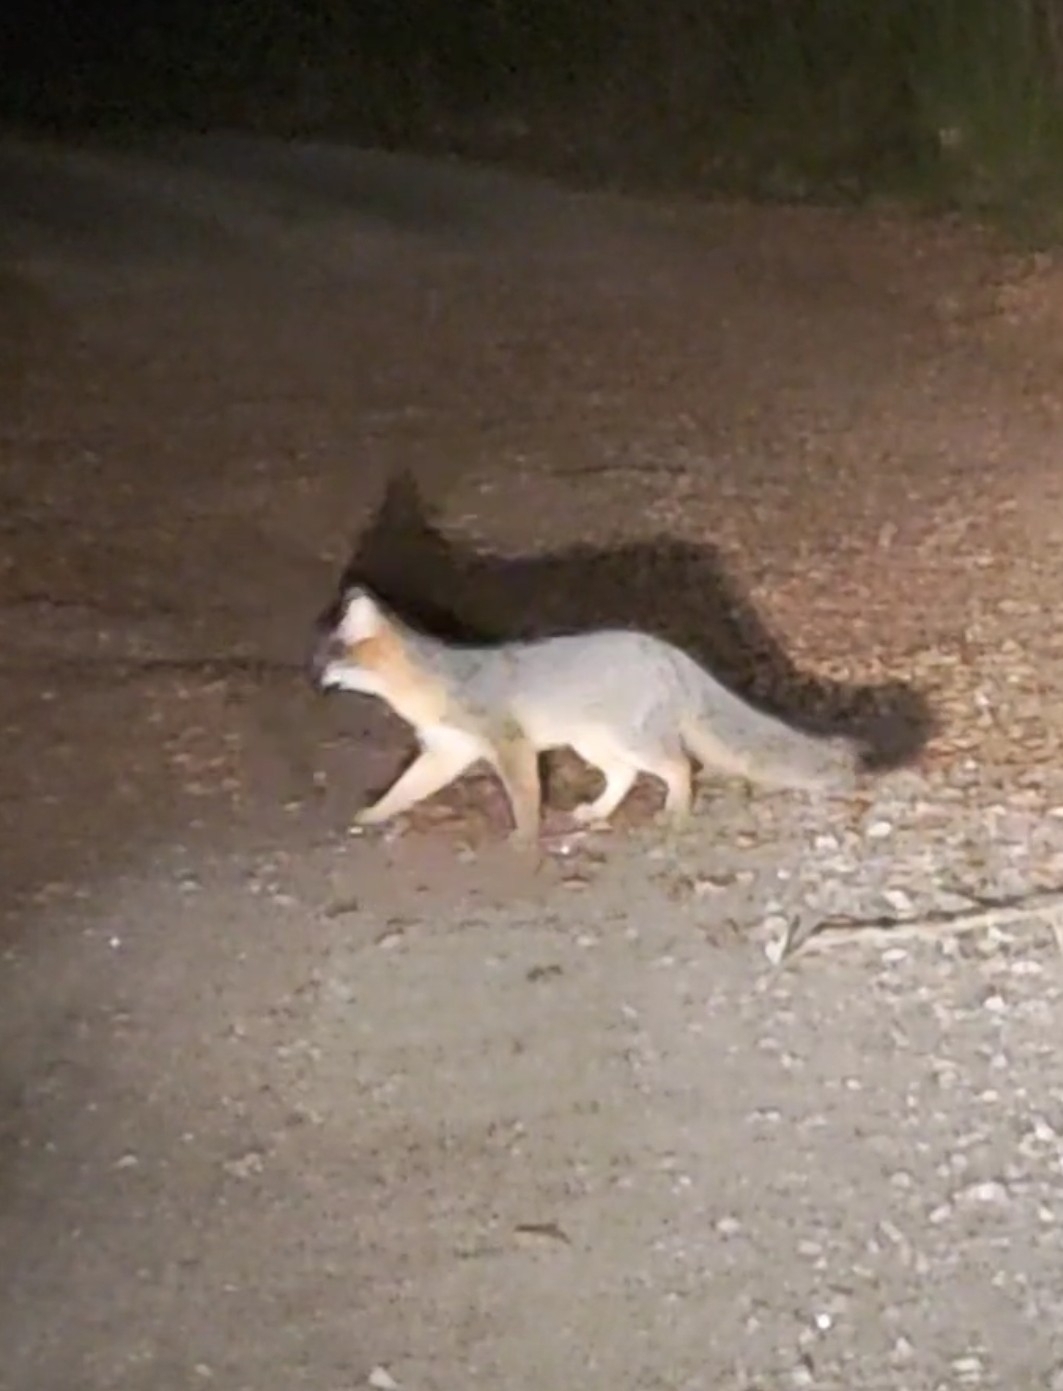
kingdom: Animalia
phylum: Chordata
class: Mammalia
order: Carnivora
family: Canidae
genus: Urocyon
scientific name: Urocyon cinereoargenteus
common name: Gray fox
